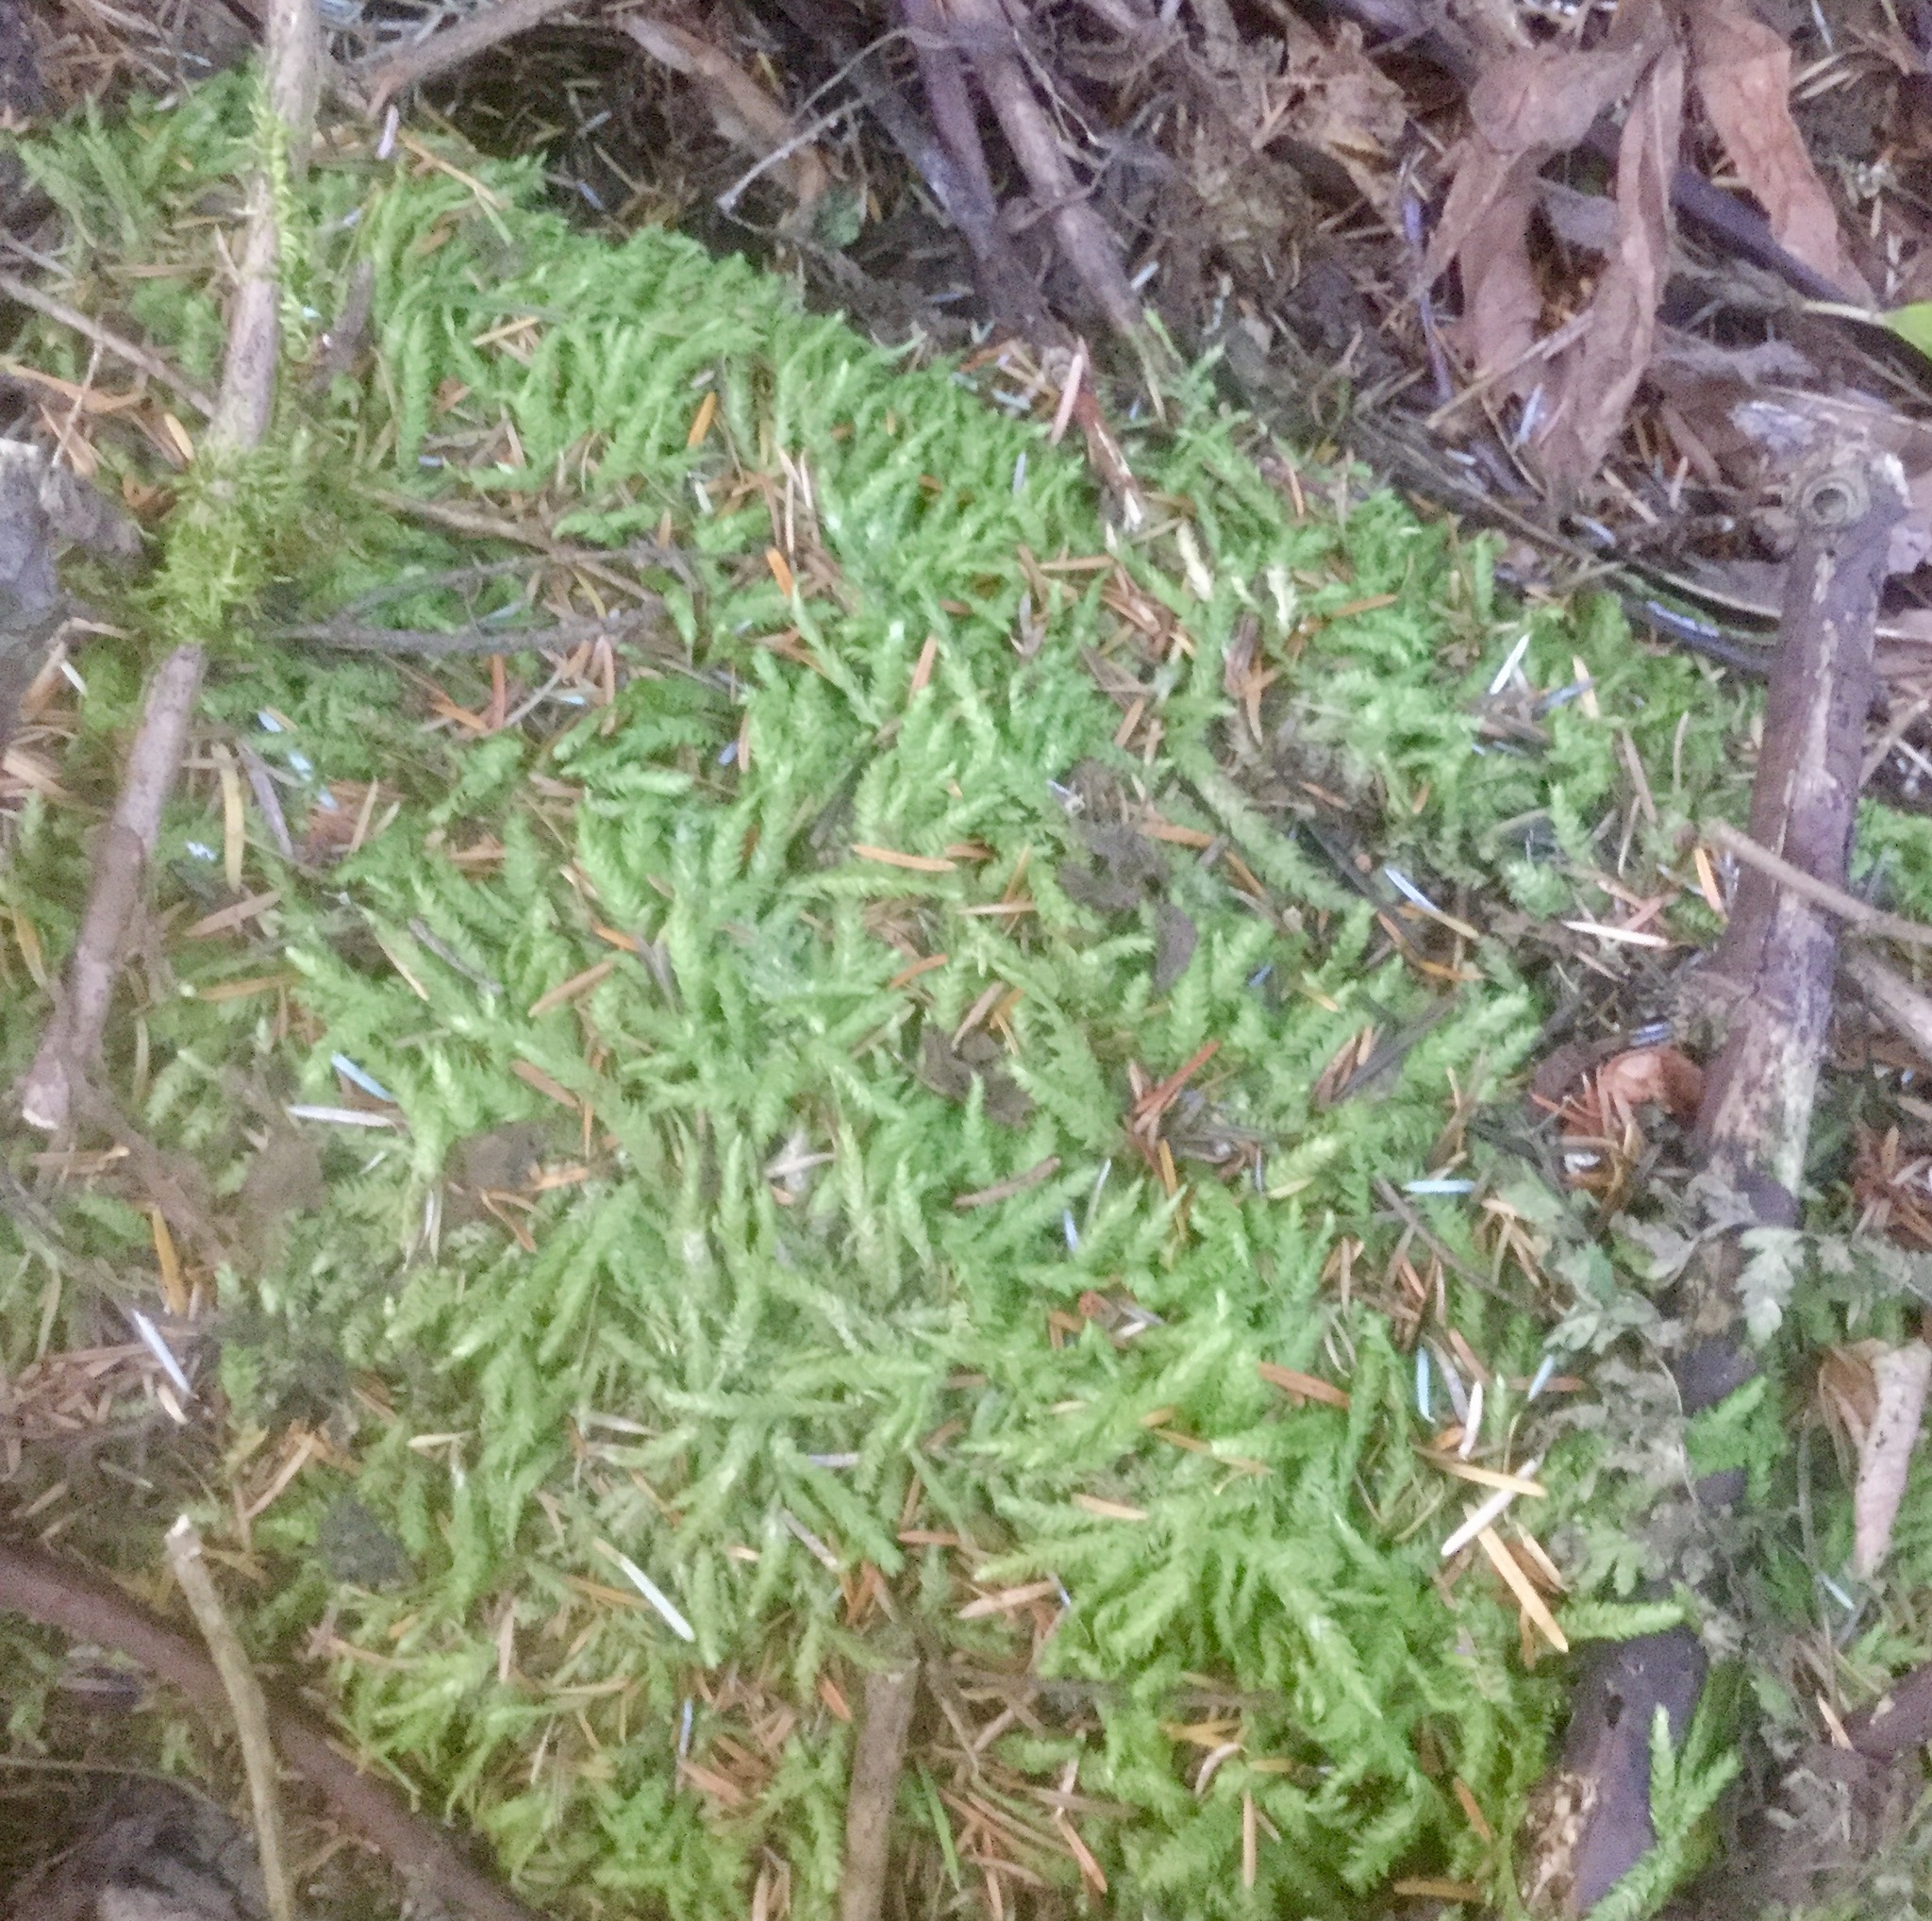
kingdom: Plantae
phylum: Bryophyta
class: Bryopsida
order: Hypnales
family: Plagiotheciaceae
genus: Plagiothecium
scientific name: Plagiothecium undulatum
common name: Waved silk-moss
